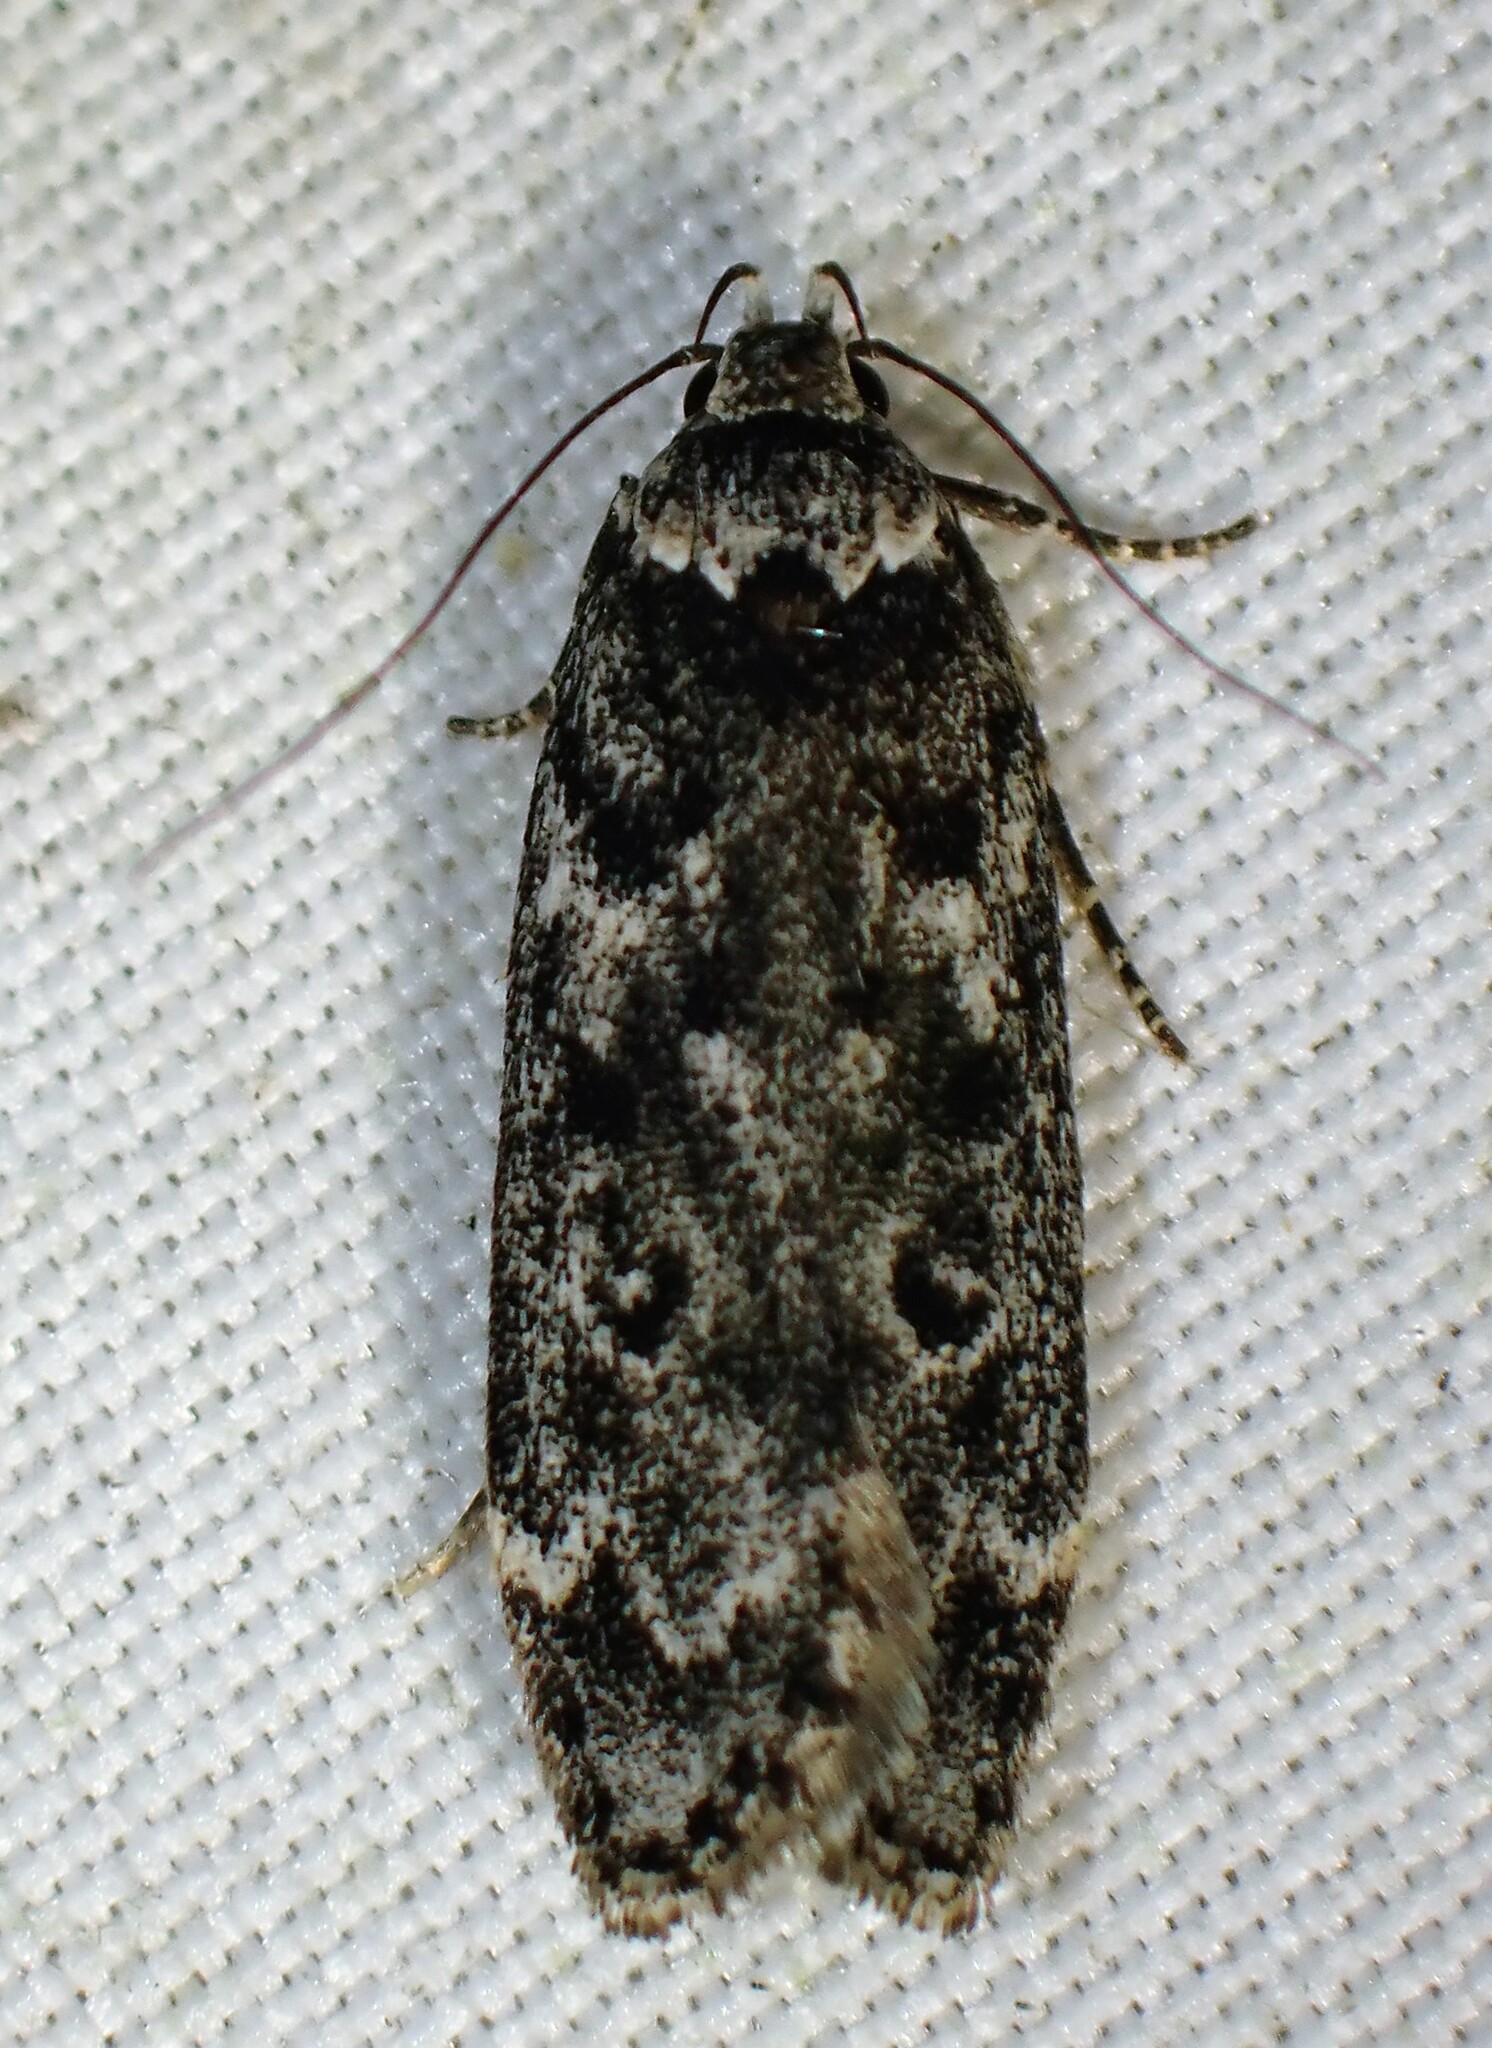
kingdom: Animalia
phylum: Arthropoda
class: Insecta
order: Lepidoptera
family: Gelechiidae
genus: Anacampsis
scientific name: Anacampsis niveopulvella
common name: Pale-headed aspen leafroller moth
